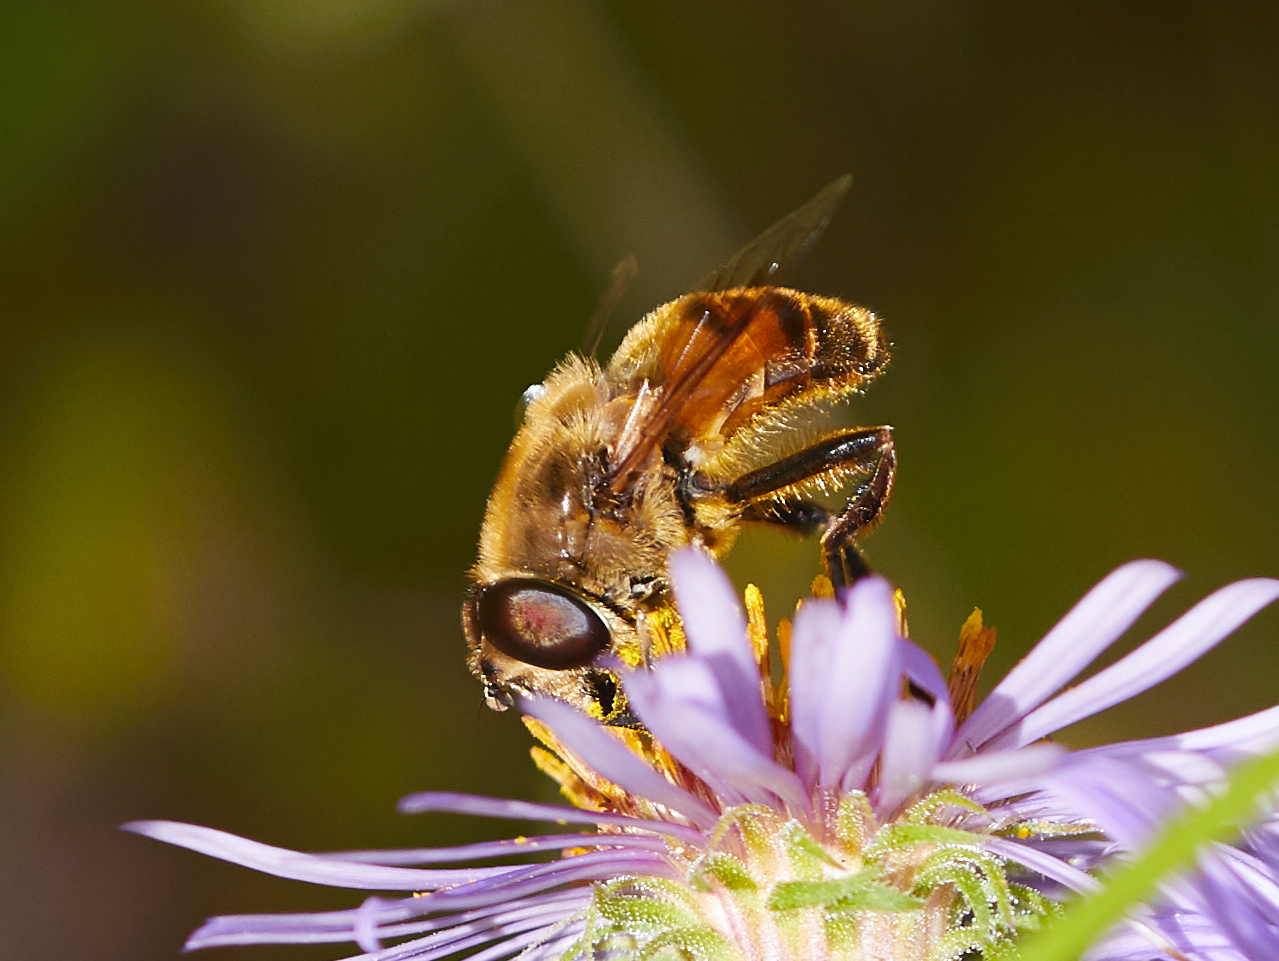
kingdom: Animalia
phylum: Arthropoda
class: Insecta
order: Diptera
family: Syrphidae
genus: Eristalis
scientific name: Eristalis tenax
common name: Drone fly
